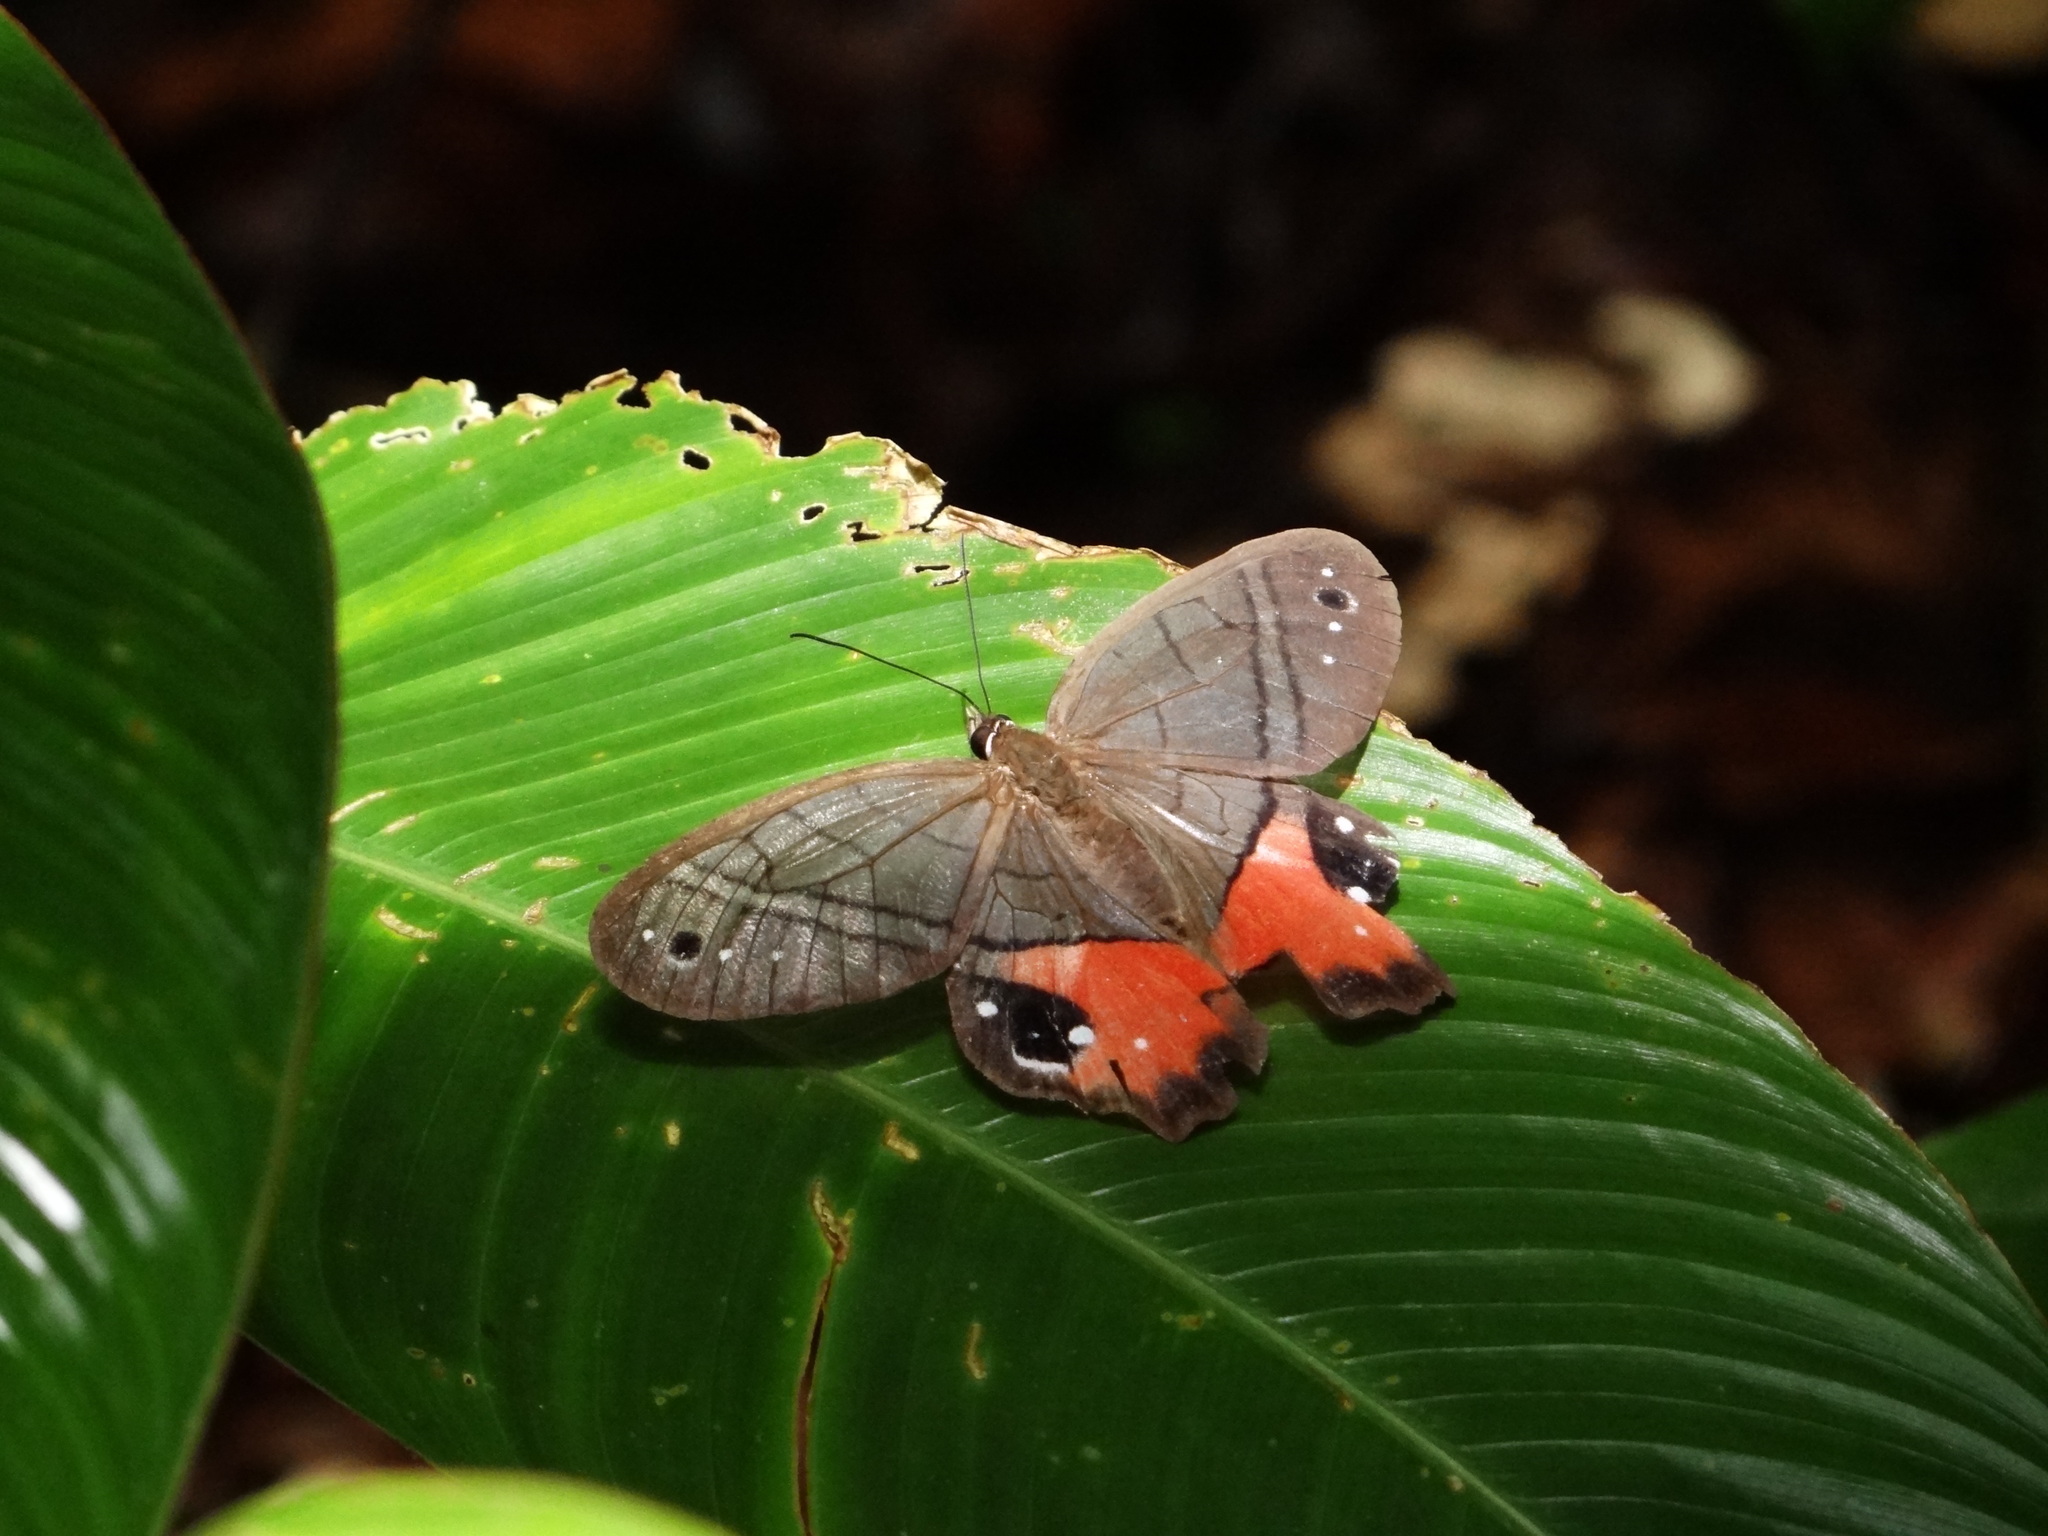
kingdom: Animalia
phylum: Arthropoda
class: Insecta
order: Lepidoptera
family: Nymphalidae
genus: Pierella
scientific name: Pierella helvina
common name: Red-washed satyr
